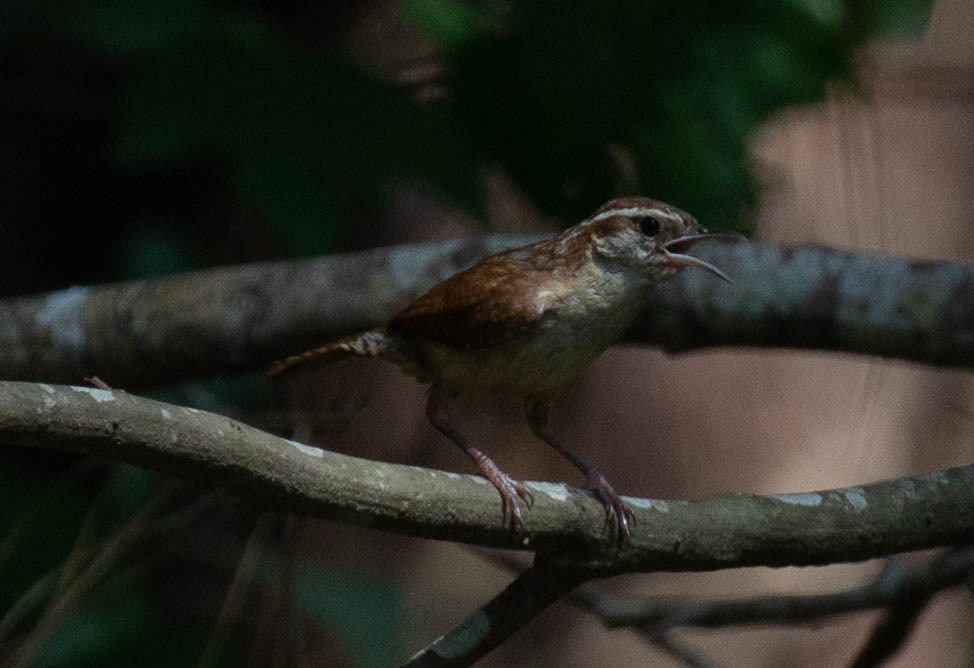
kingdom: Animalia
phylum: Chordata
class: Aves
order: Passeriformes
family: Troglodytidae
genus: Thryothorus
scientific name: Thryothorus ludovicianus
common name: Carolina wren
